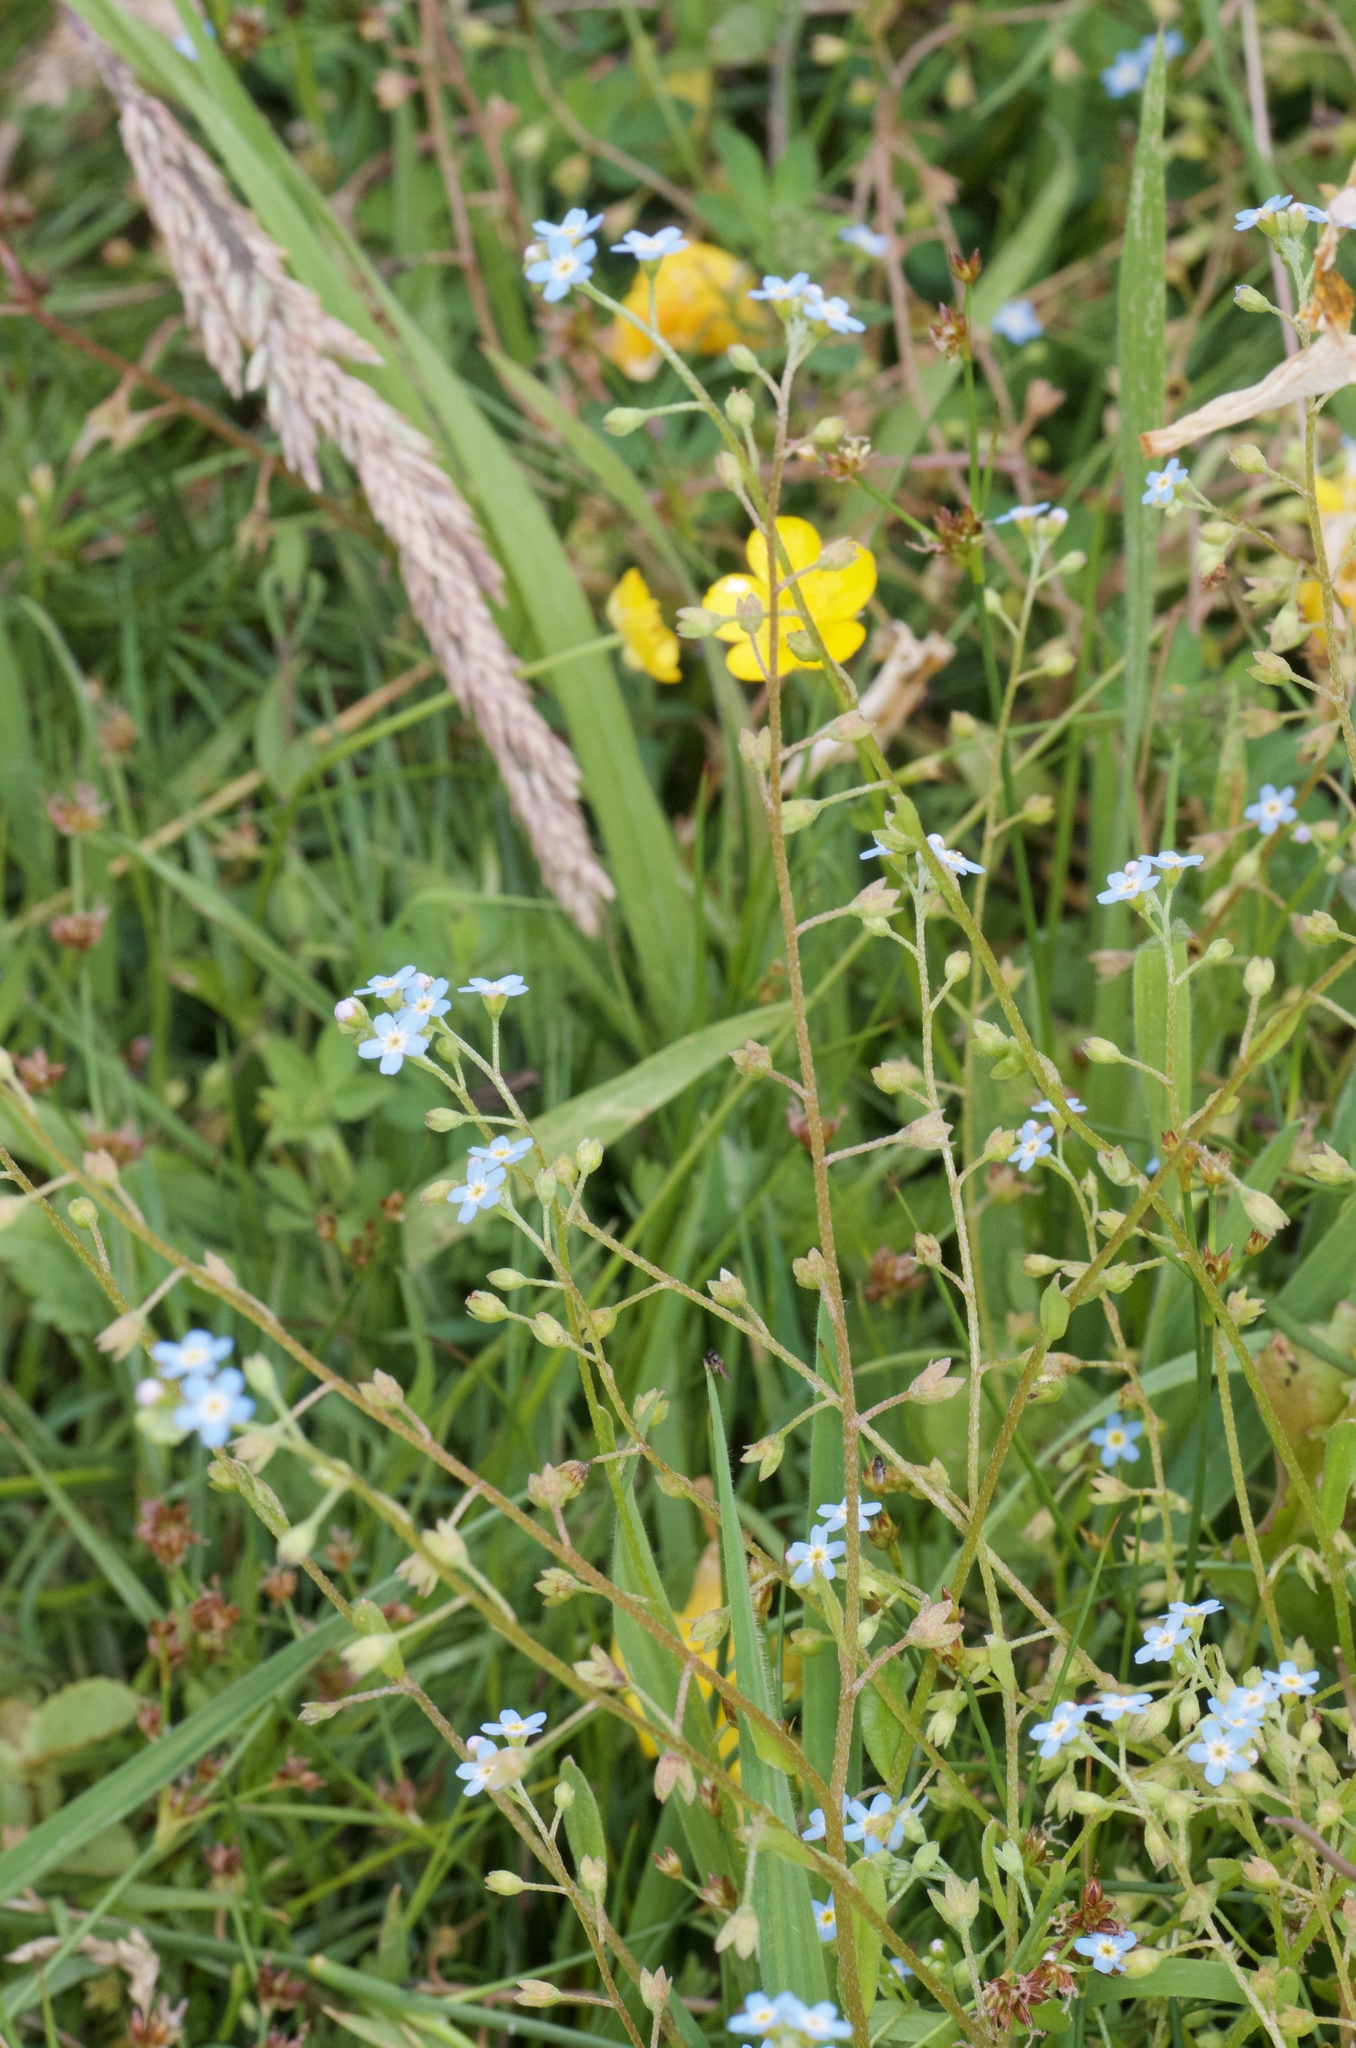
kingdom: Plantae
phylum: Tracheophyta
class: Magnoliopsida
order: Boraginales
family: Boraginaceae
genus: Myosotis
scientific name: Myosotis laxa
